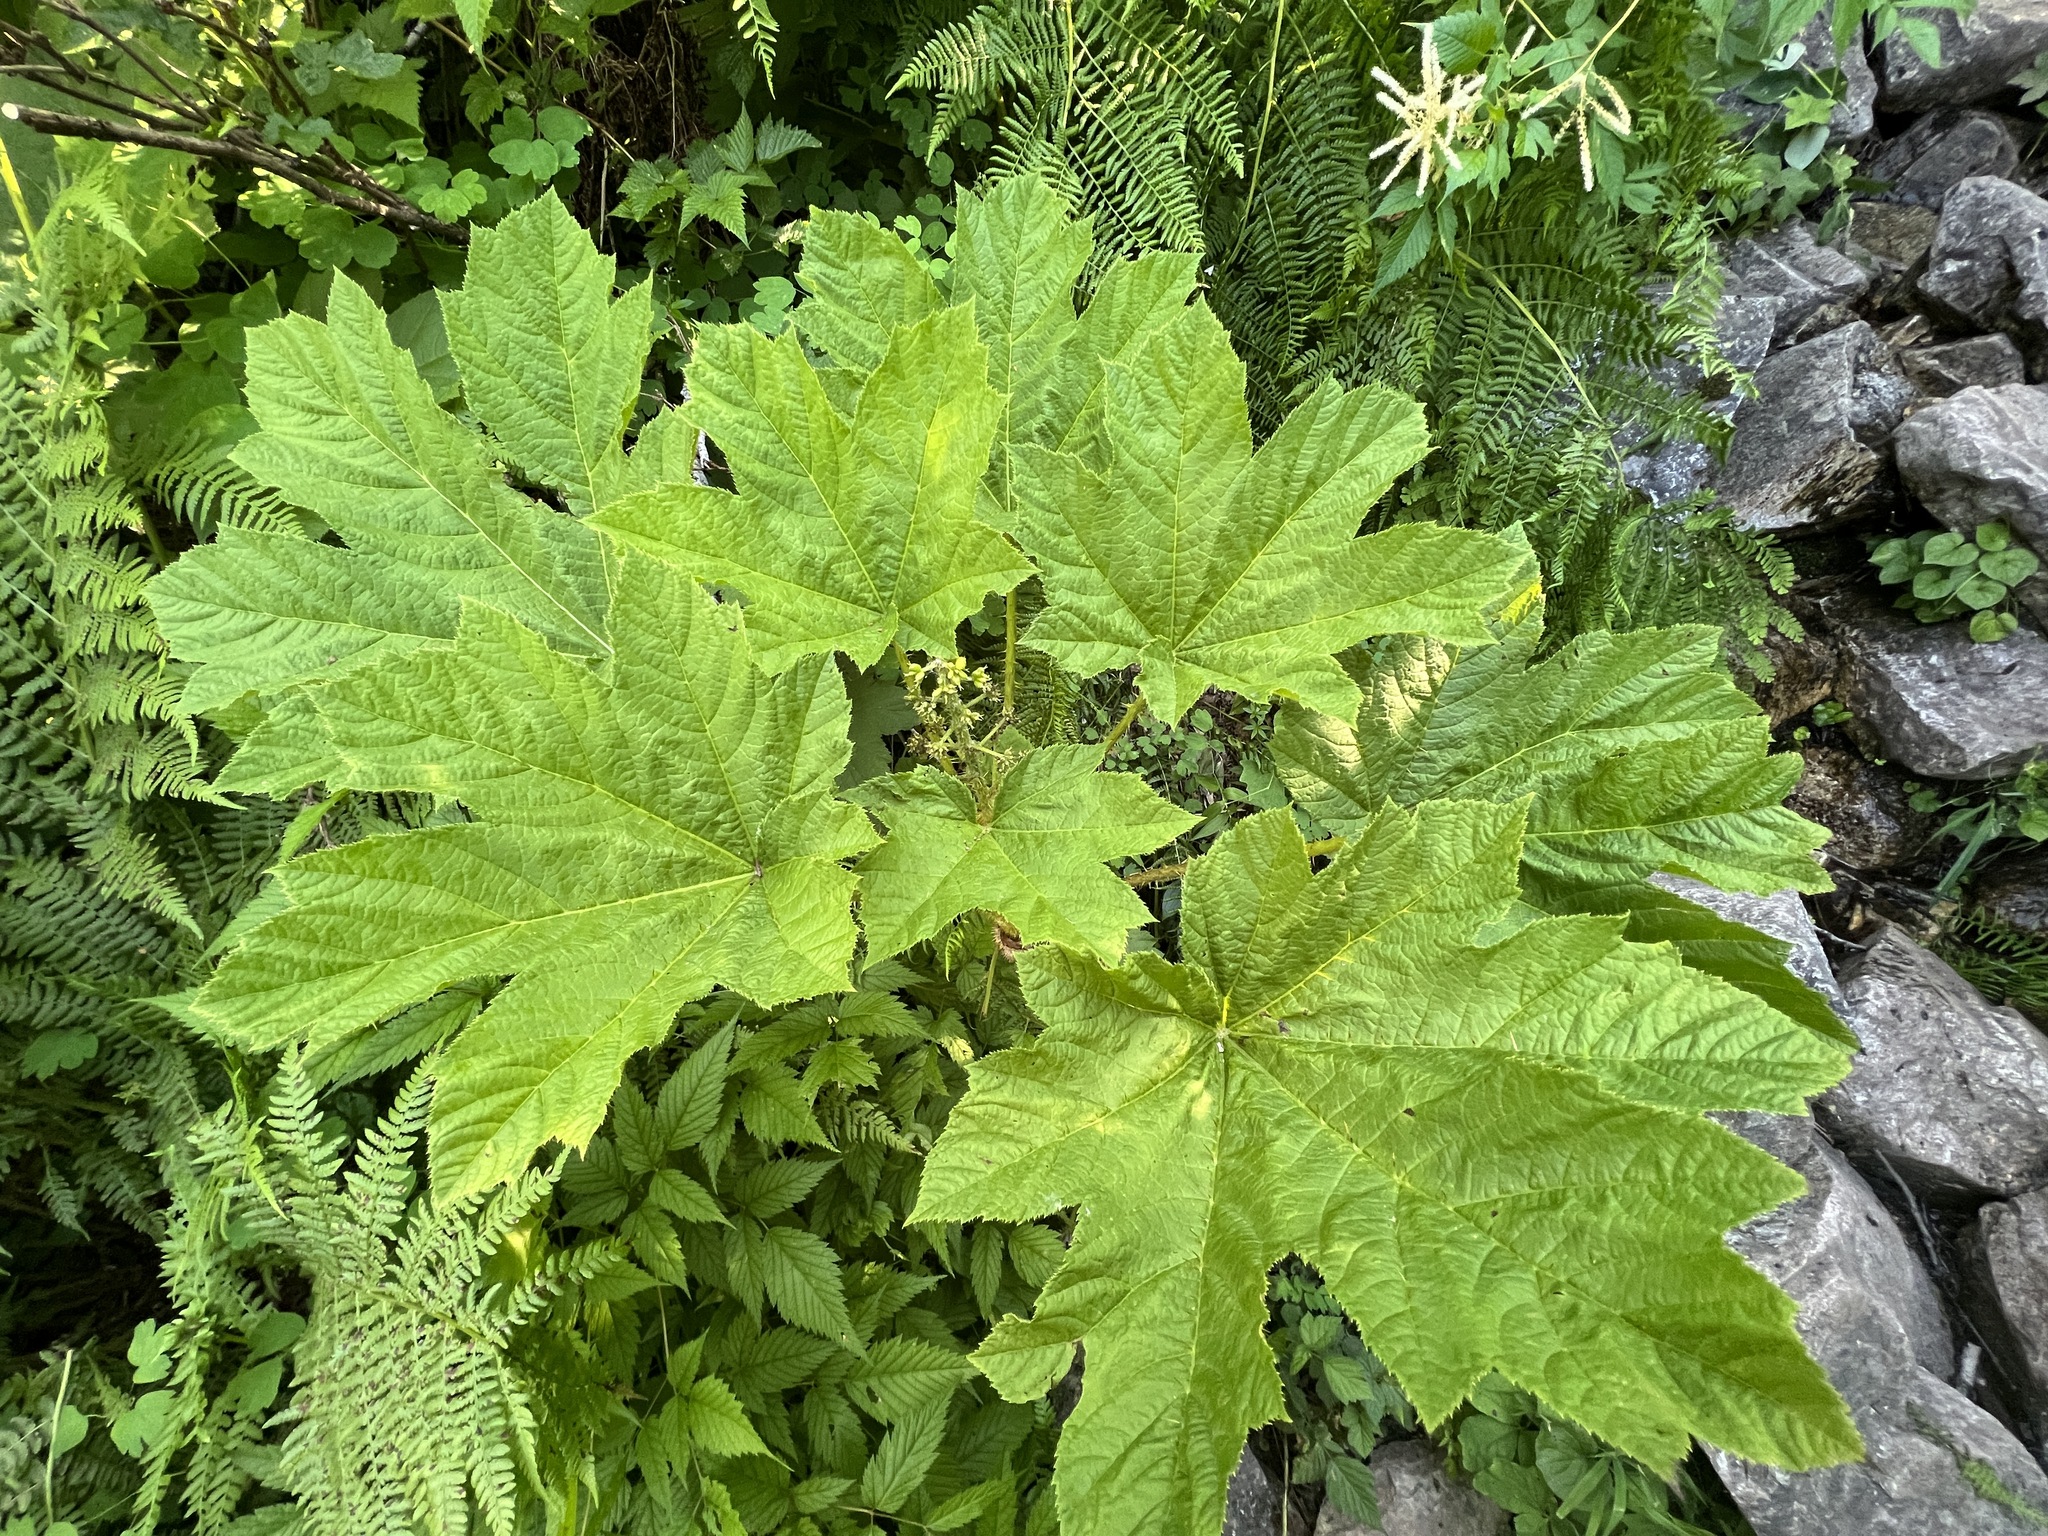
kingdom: Plantae
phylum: Tracheophyta
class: Magnoliopsida
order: Apiales
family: Araliaceae
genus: Oplopanax
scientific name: Oplopanax horridus
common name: Devil's walking-stick
